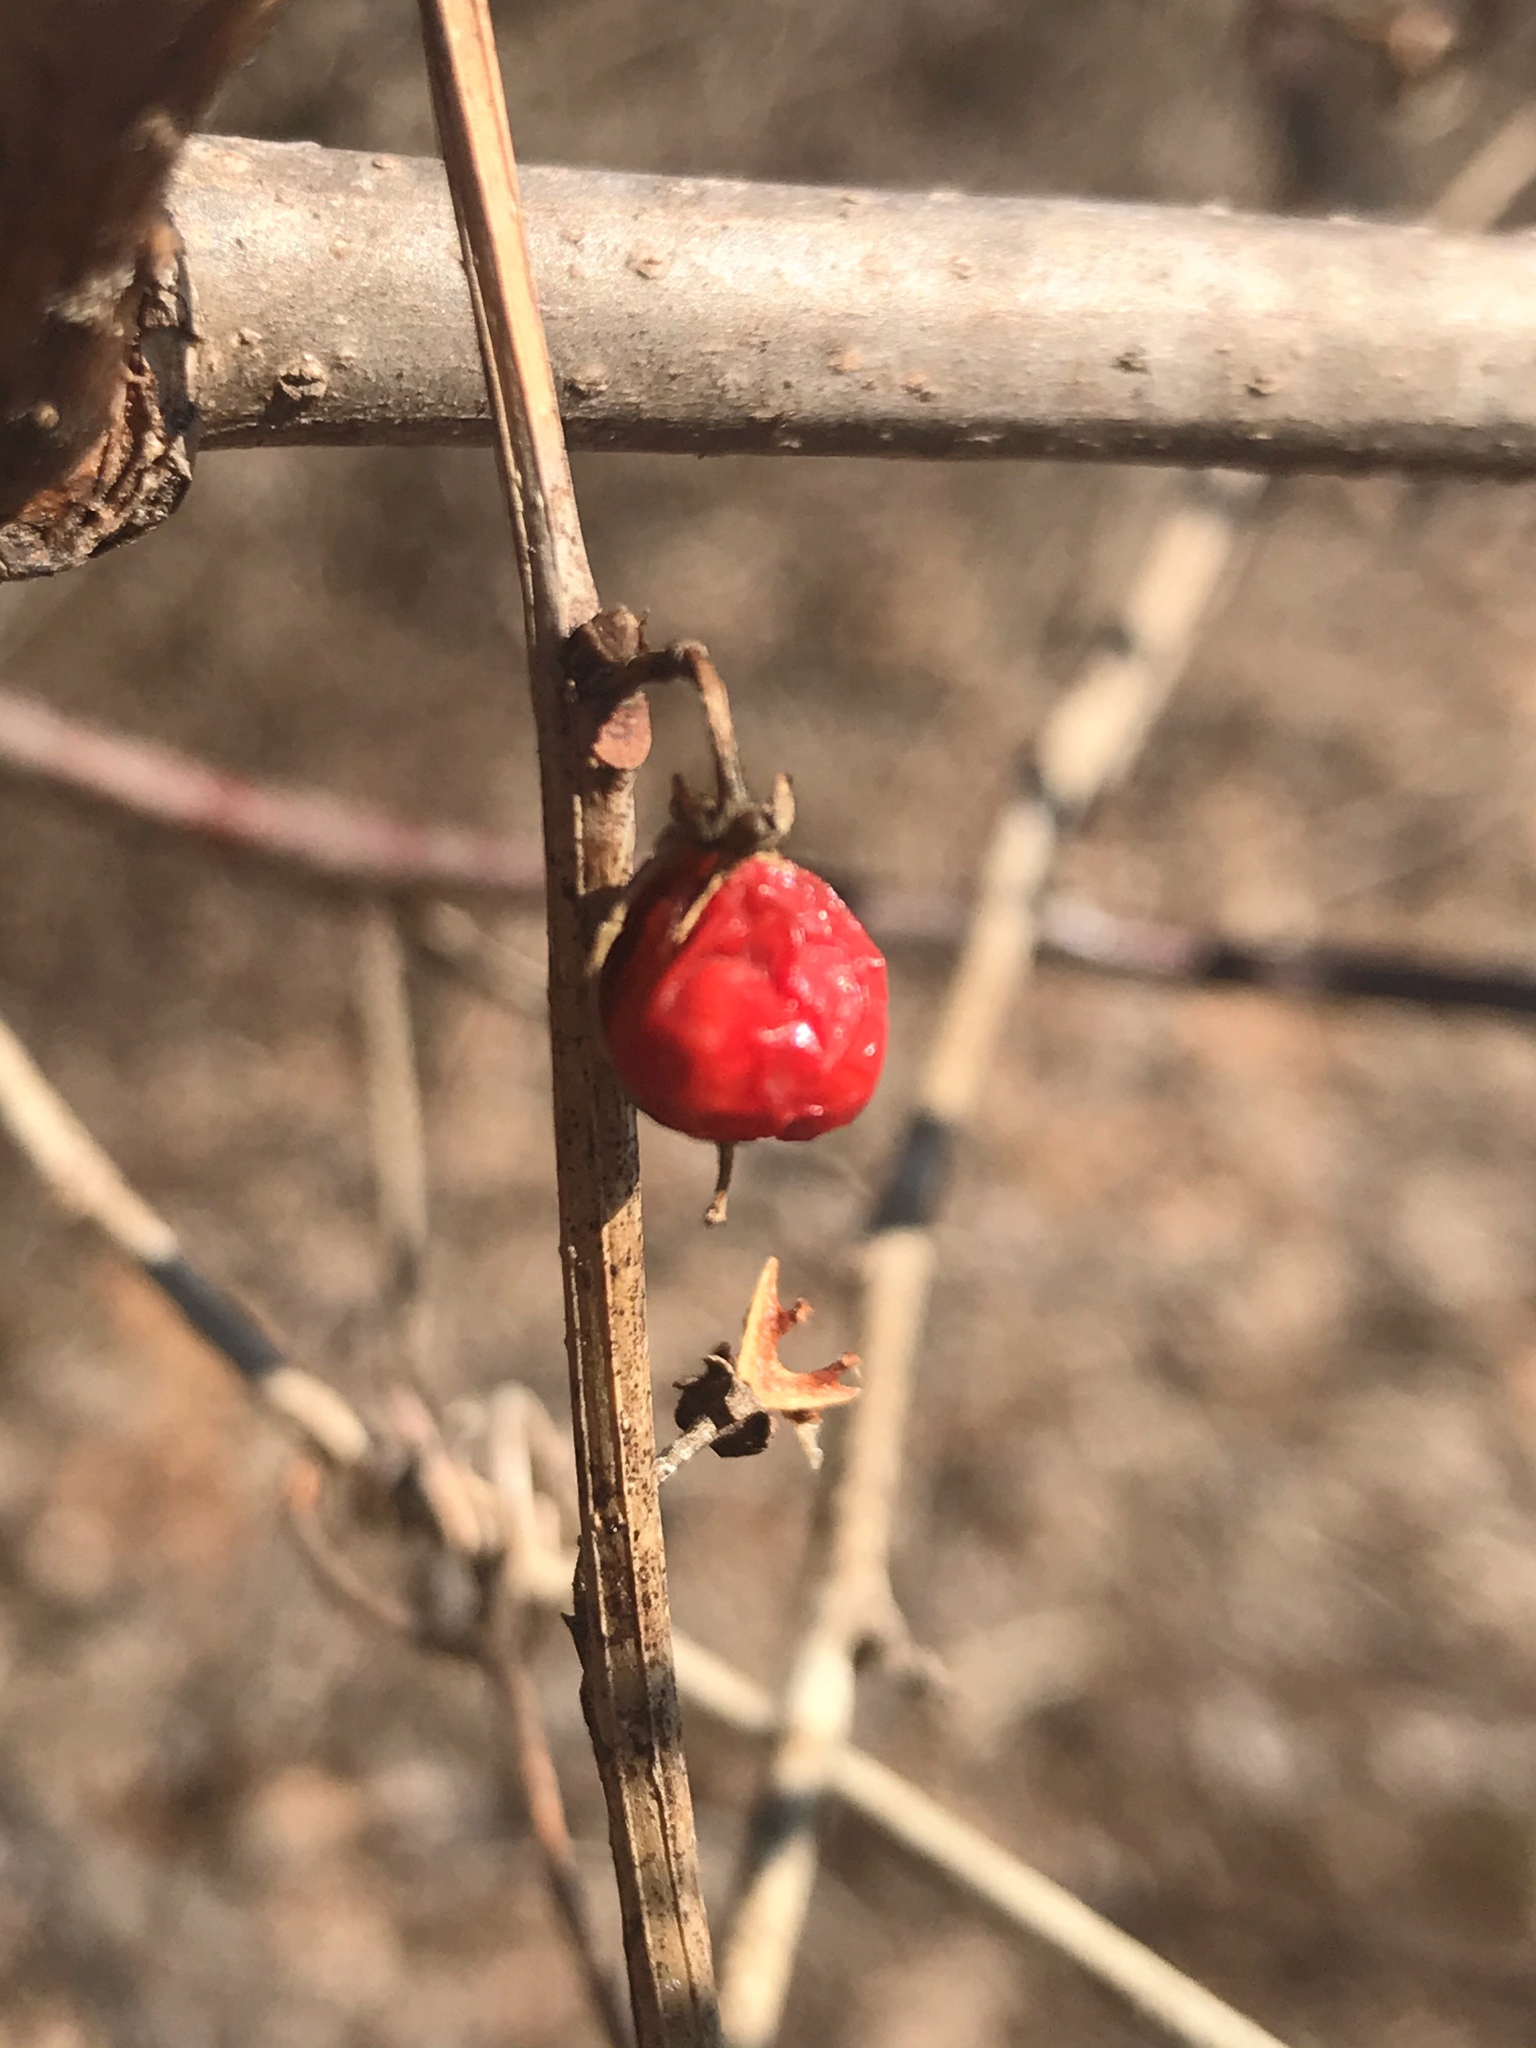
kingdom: Plantae
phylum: Tracheophyta
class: Magnoliopsida
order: Celastrales
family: Celastraceae
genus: Celastrus
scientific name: Celastrus orbiculatus
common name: Oriental bittersweet
